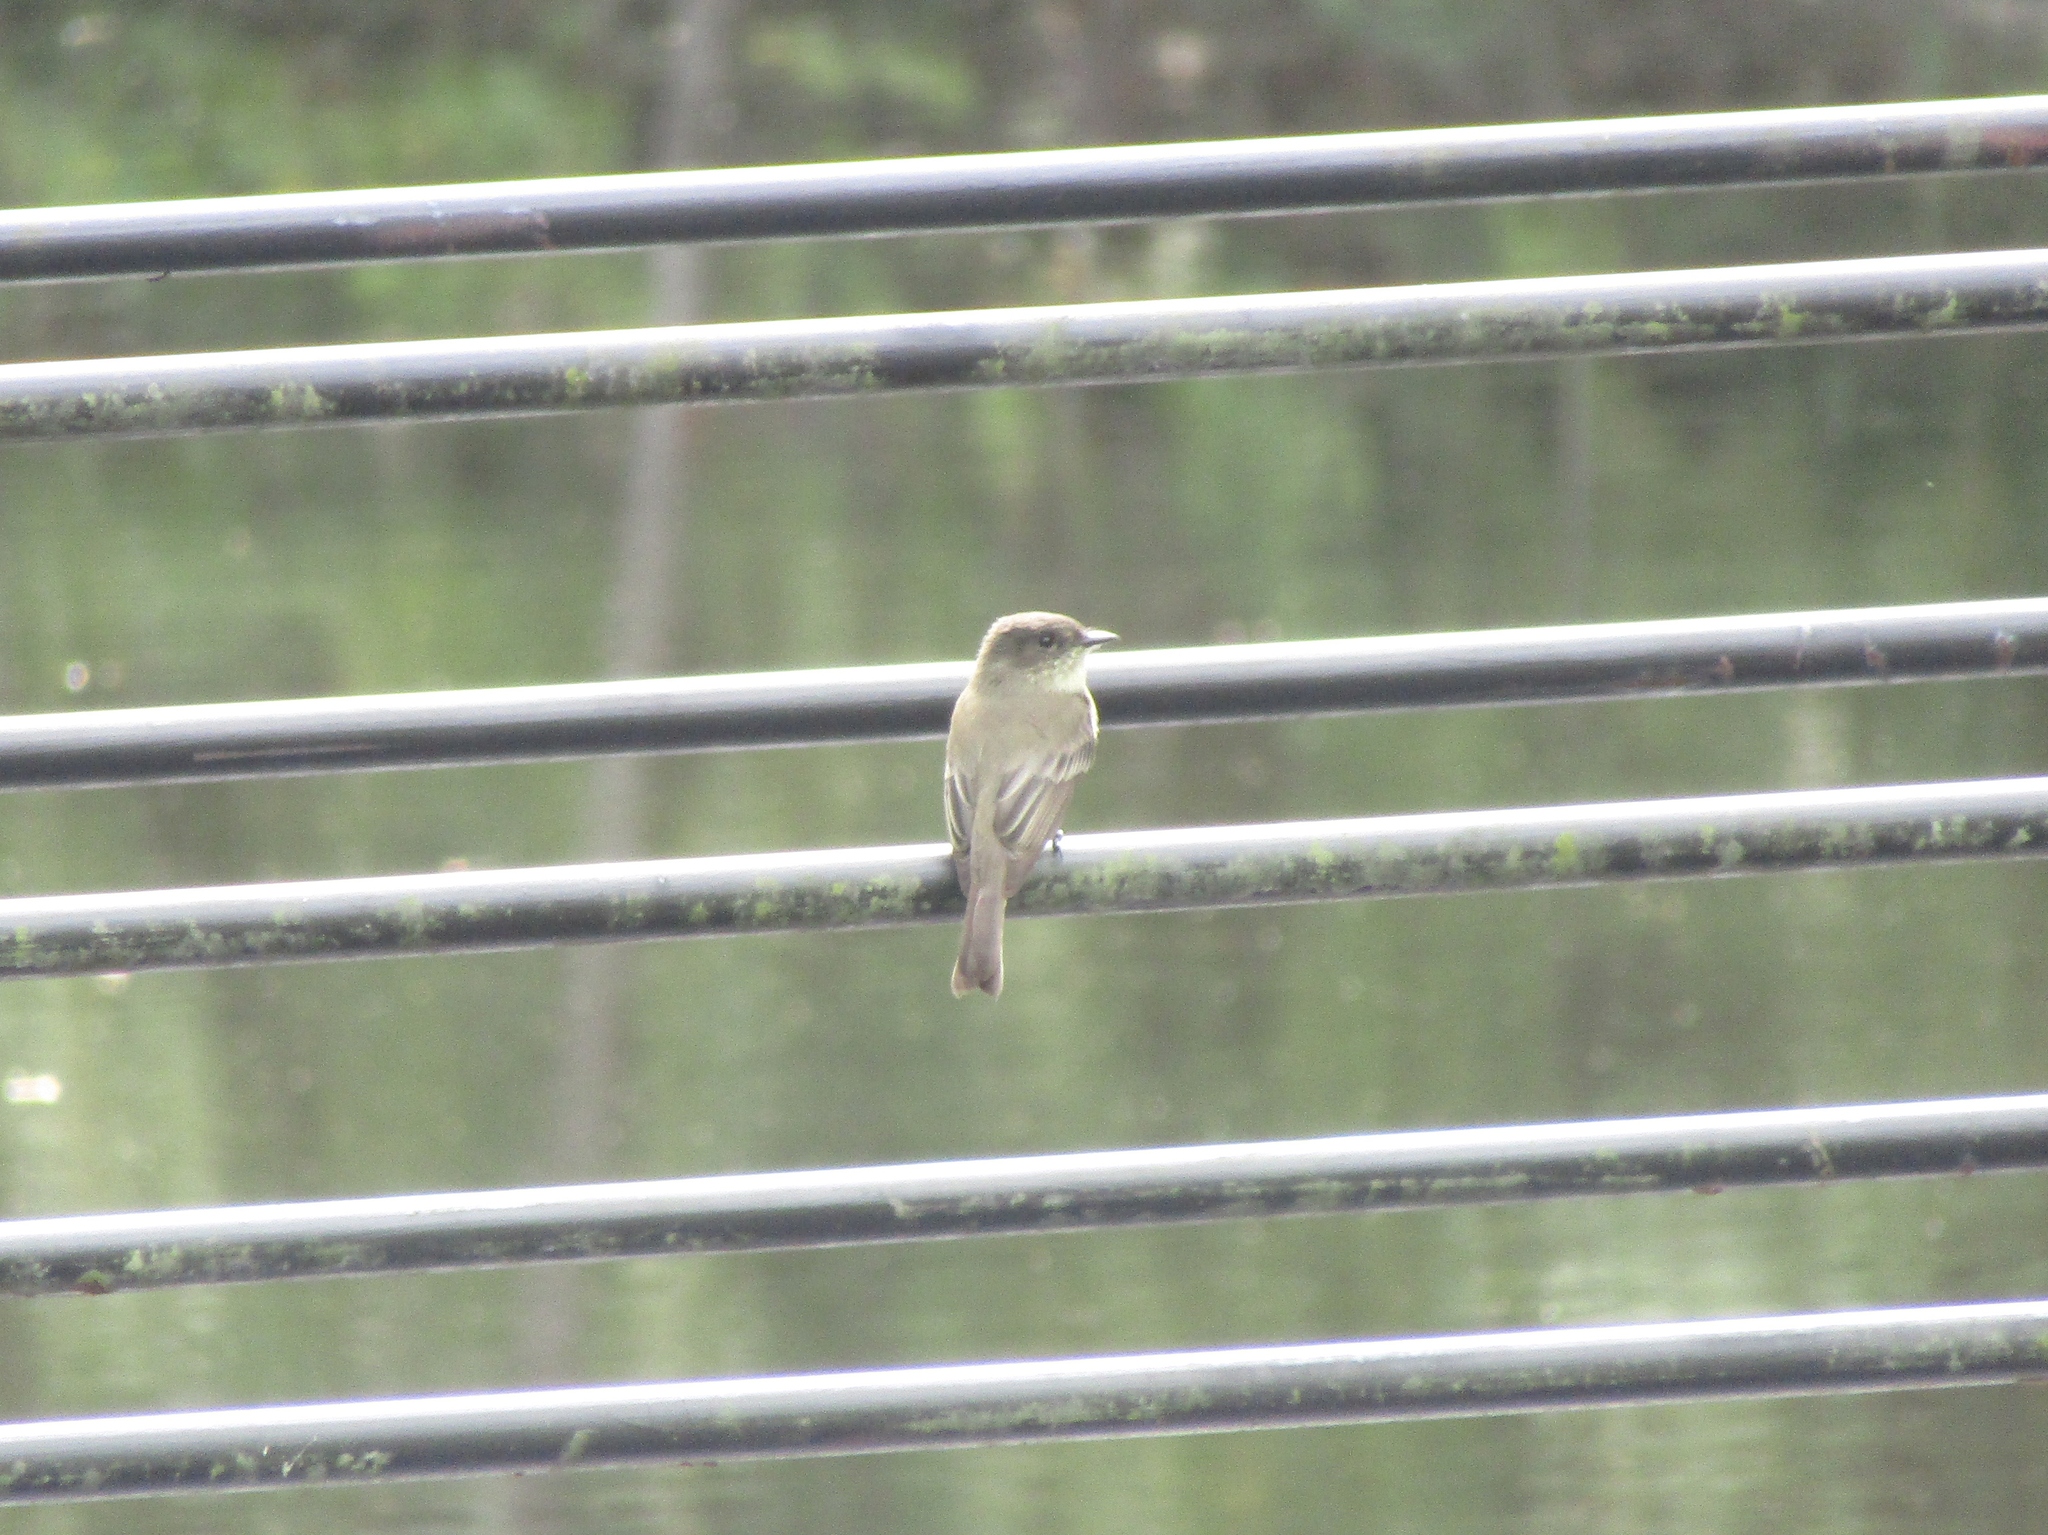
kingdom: Animalia
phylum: Chordata
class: Aves
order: Passeriformes
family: Tyrannidae
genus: Sayornis
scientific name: Sayornis phoebe
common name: Eastern phoebe
